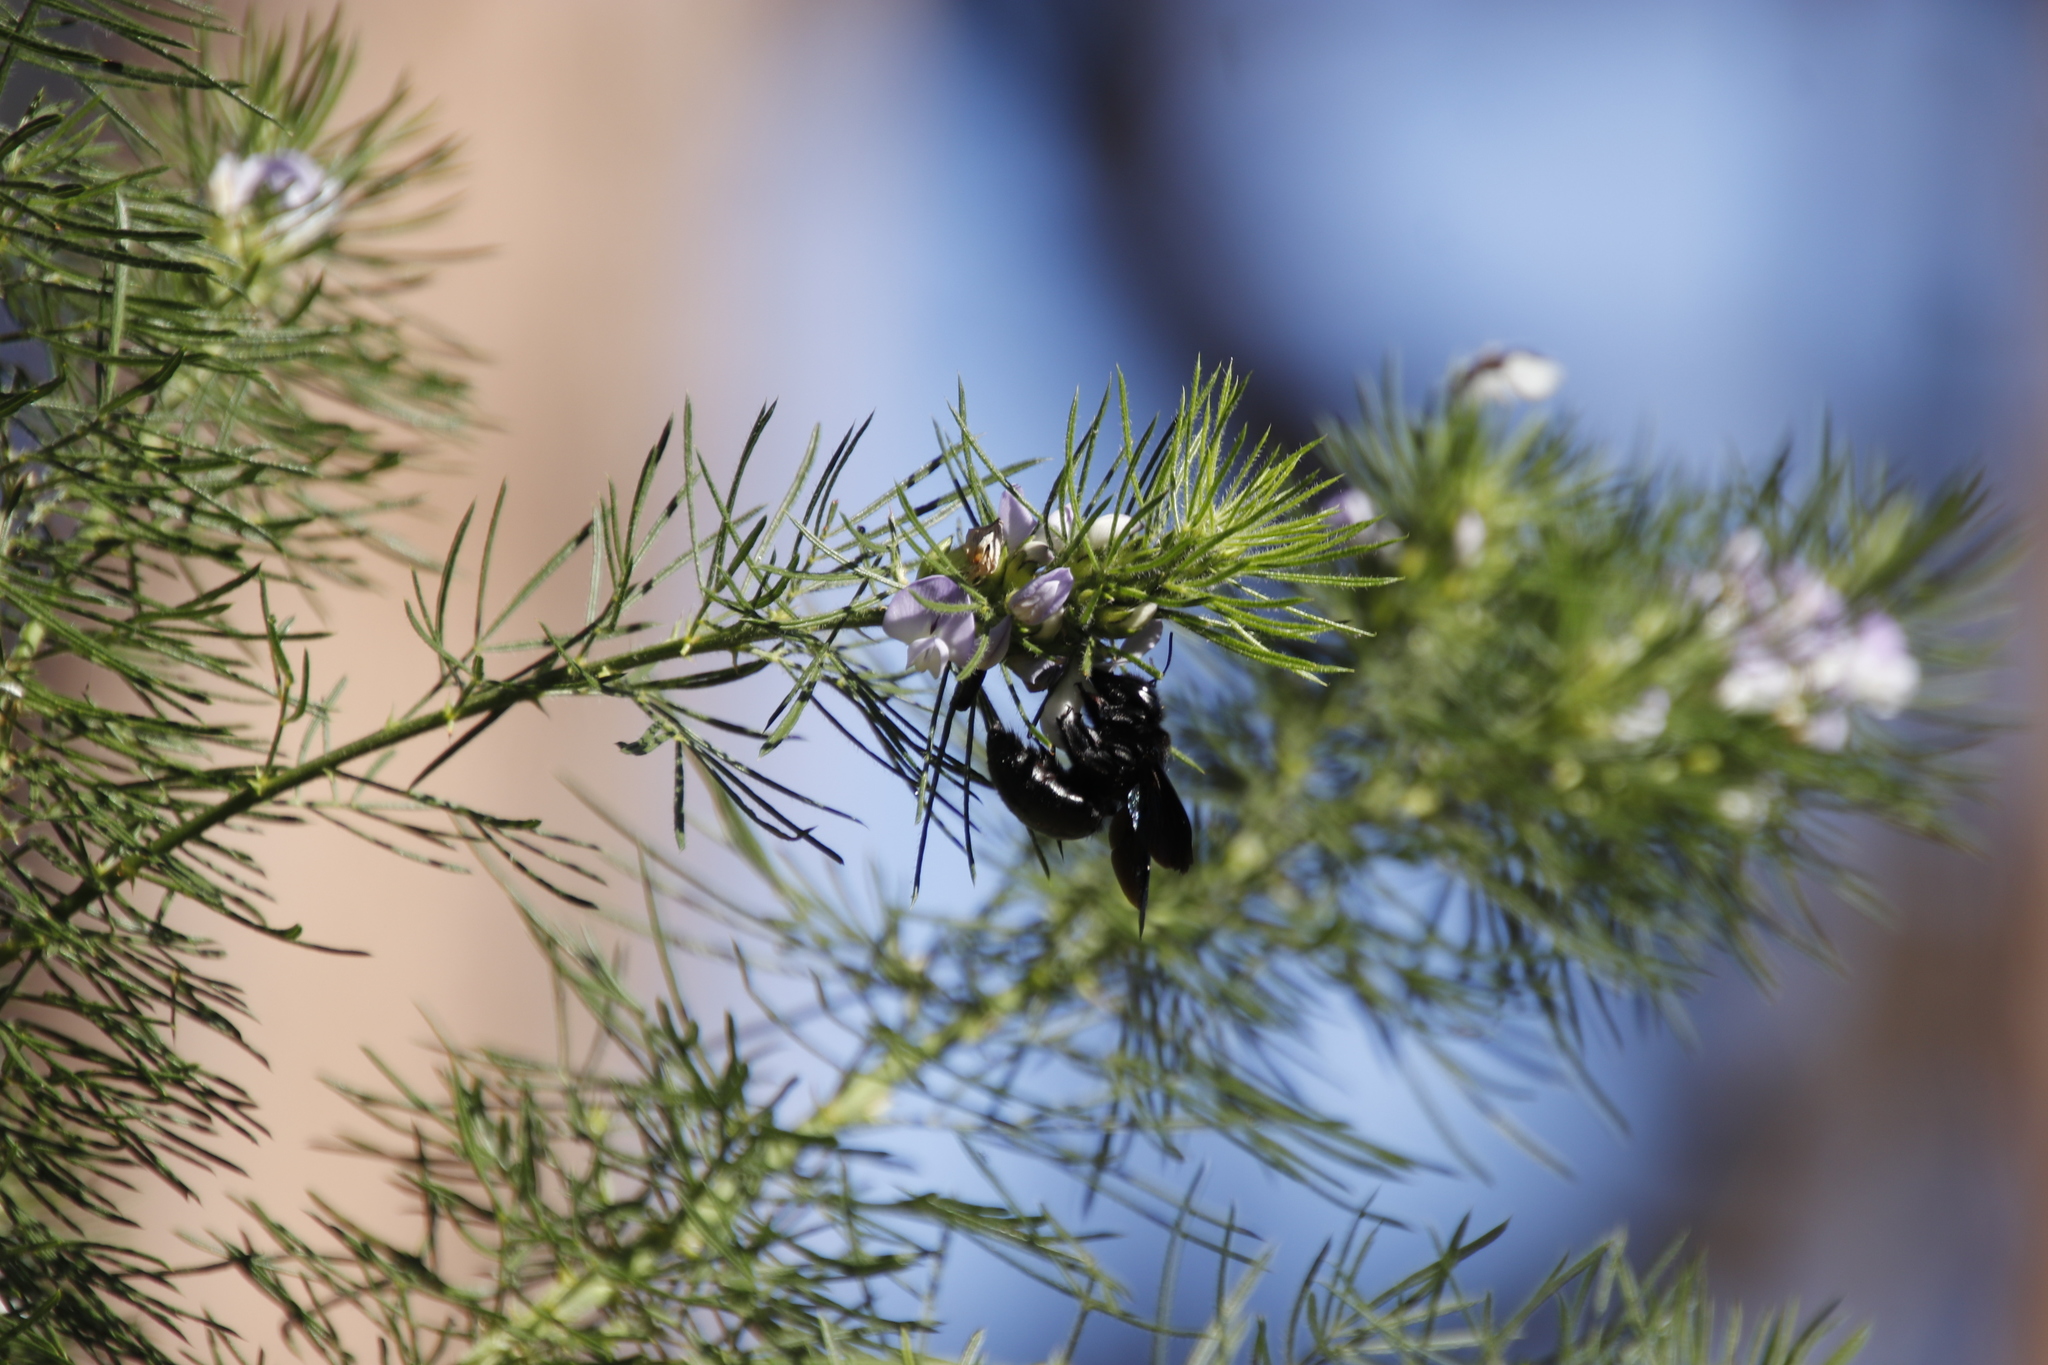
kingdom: Plantae
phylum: Tracheophyta
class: Magnoliopsida
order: Fabales
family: Fabaceae
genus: Psoralea
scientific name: Psoralea pinnata
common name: African scurfpea
